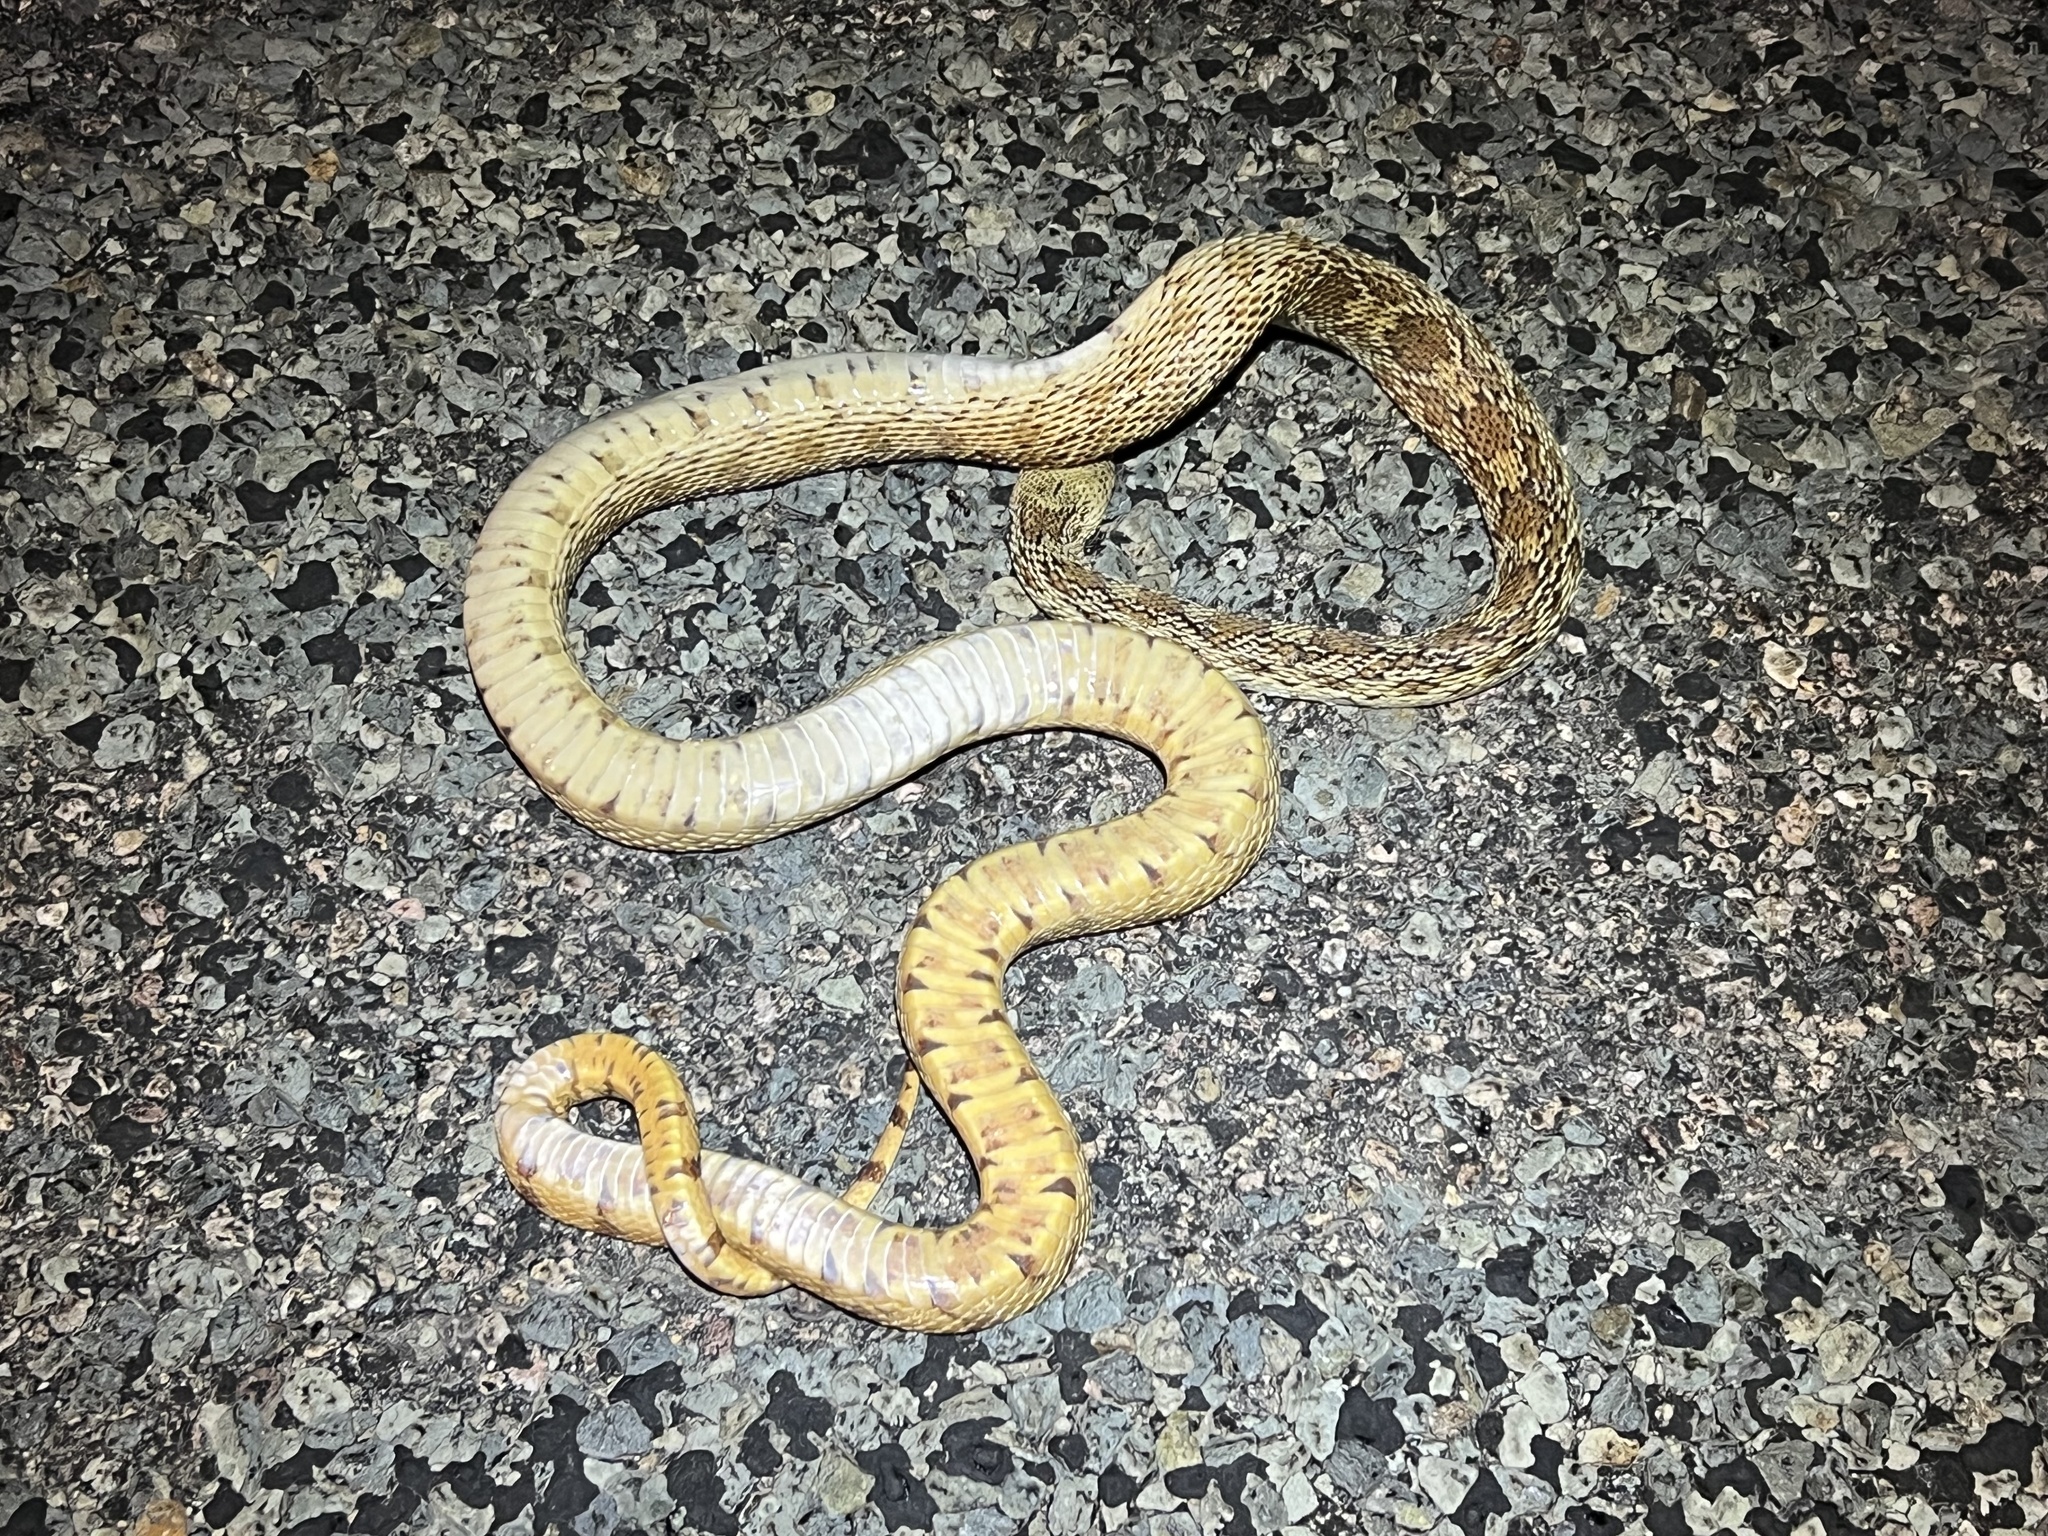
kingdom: Animalia
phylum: Chordata
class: Squamata
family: Colubridae
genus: Pituophis
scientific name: Pituophis catenifer
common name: Gopher snake
